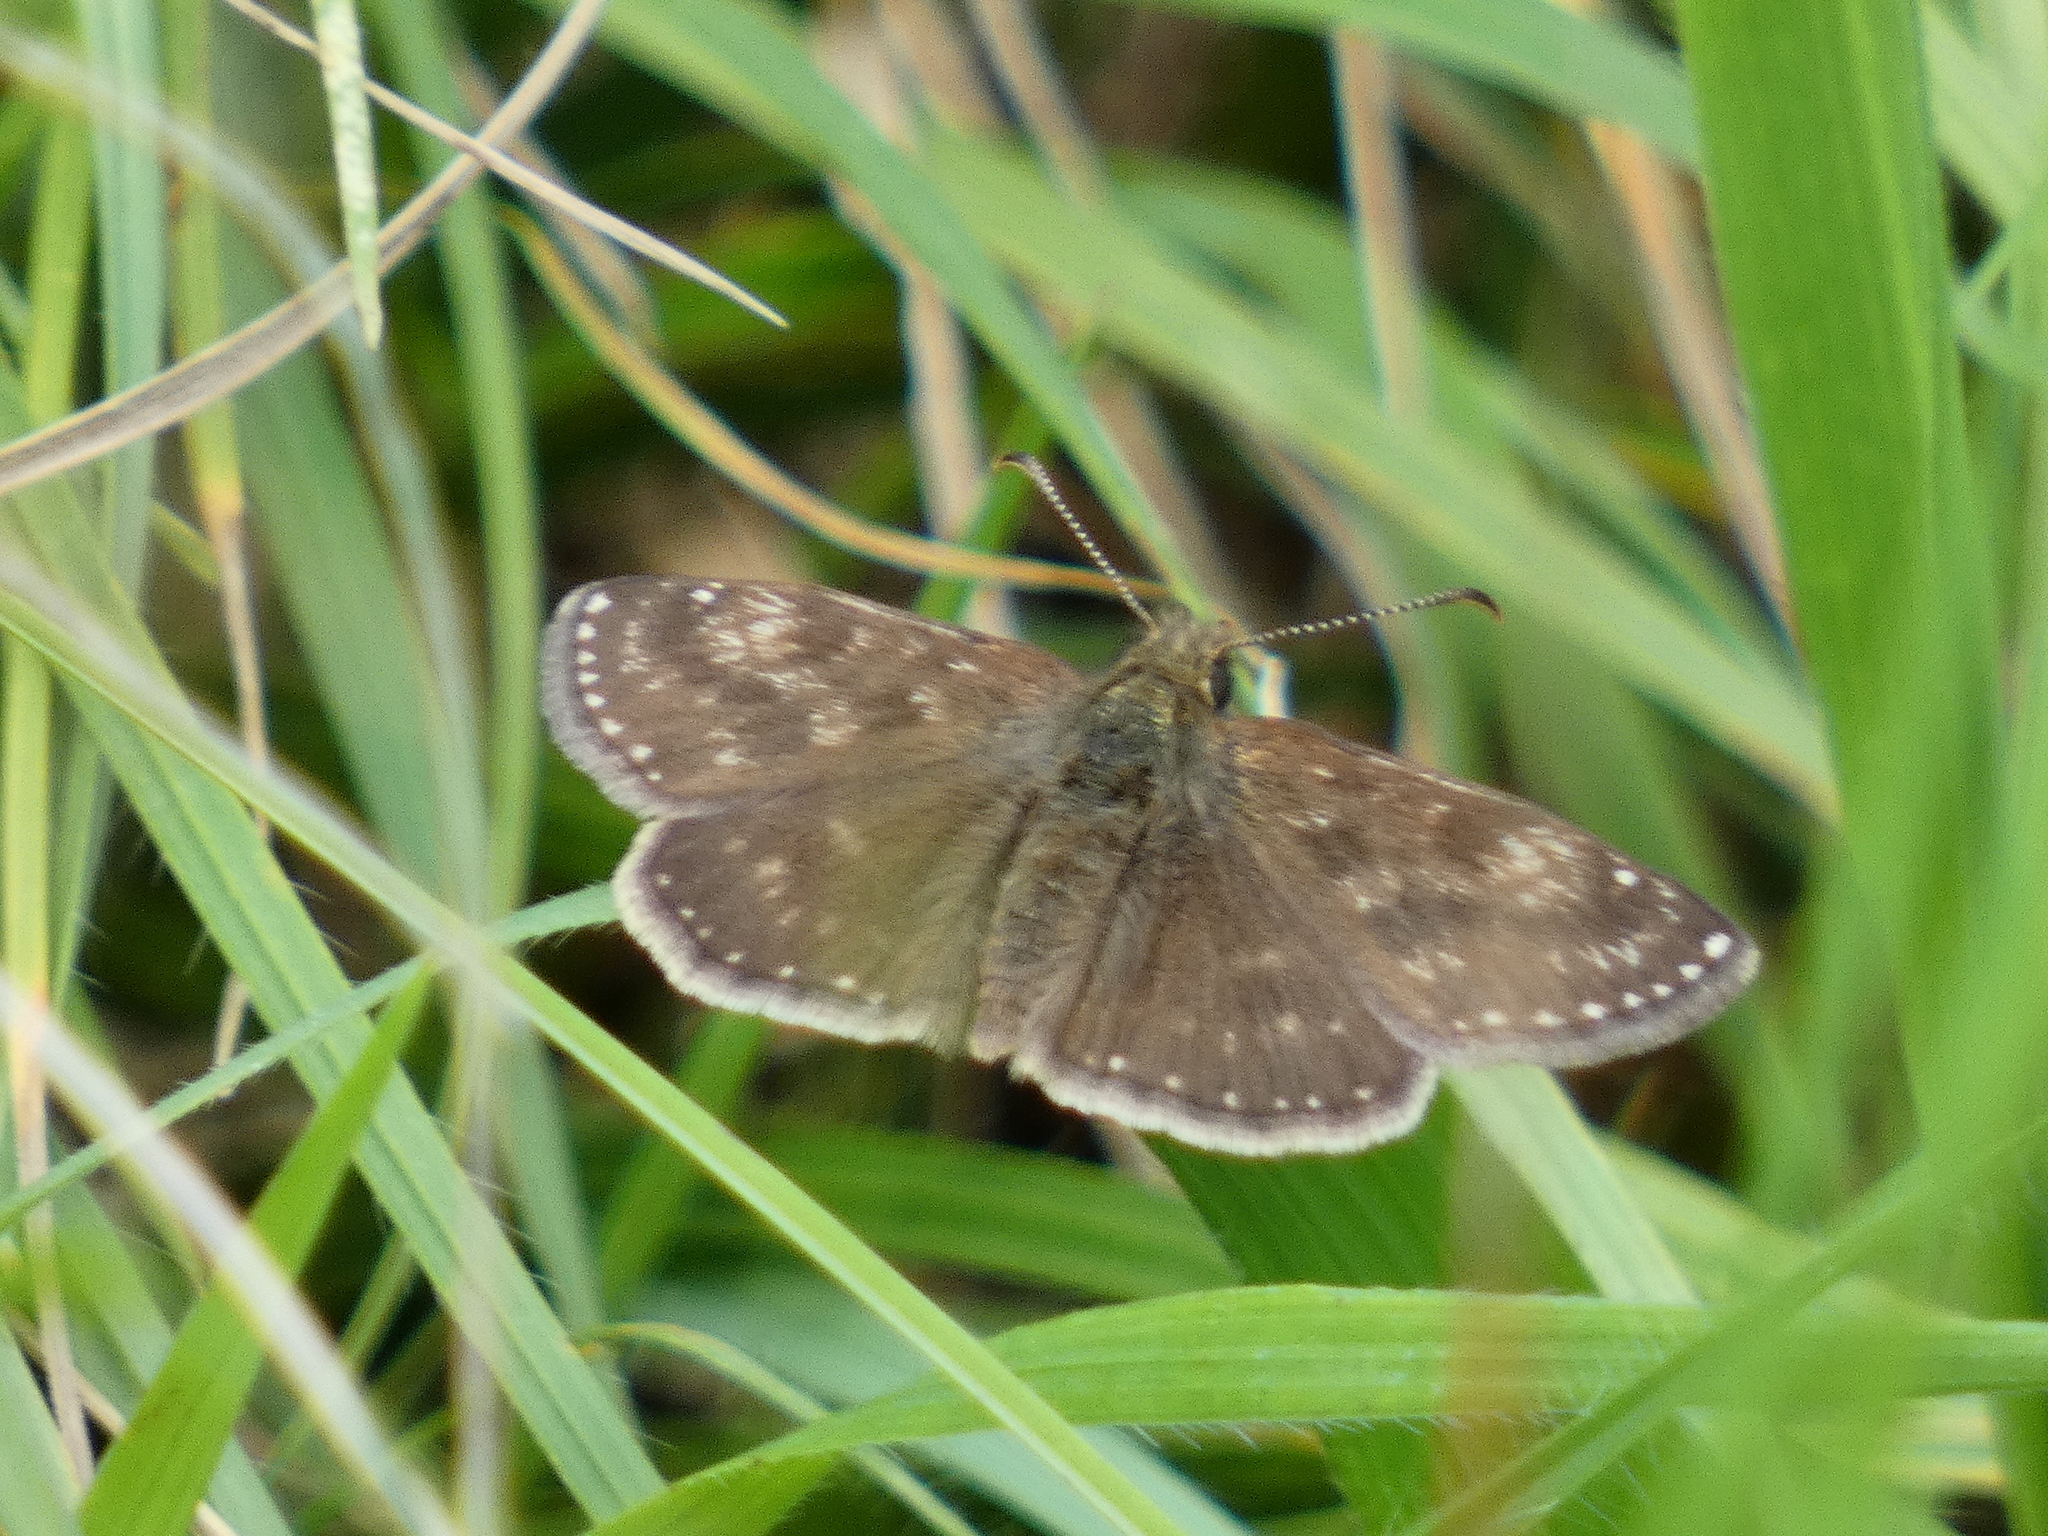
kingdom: Animalia
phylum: Arthropoda
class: Insecta
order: Lepidoptera
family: Hesperiidae
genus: Erynnis
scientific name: Erynnis tages
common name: Dingy skipper
